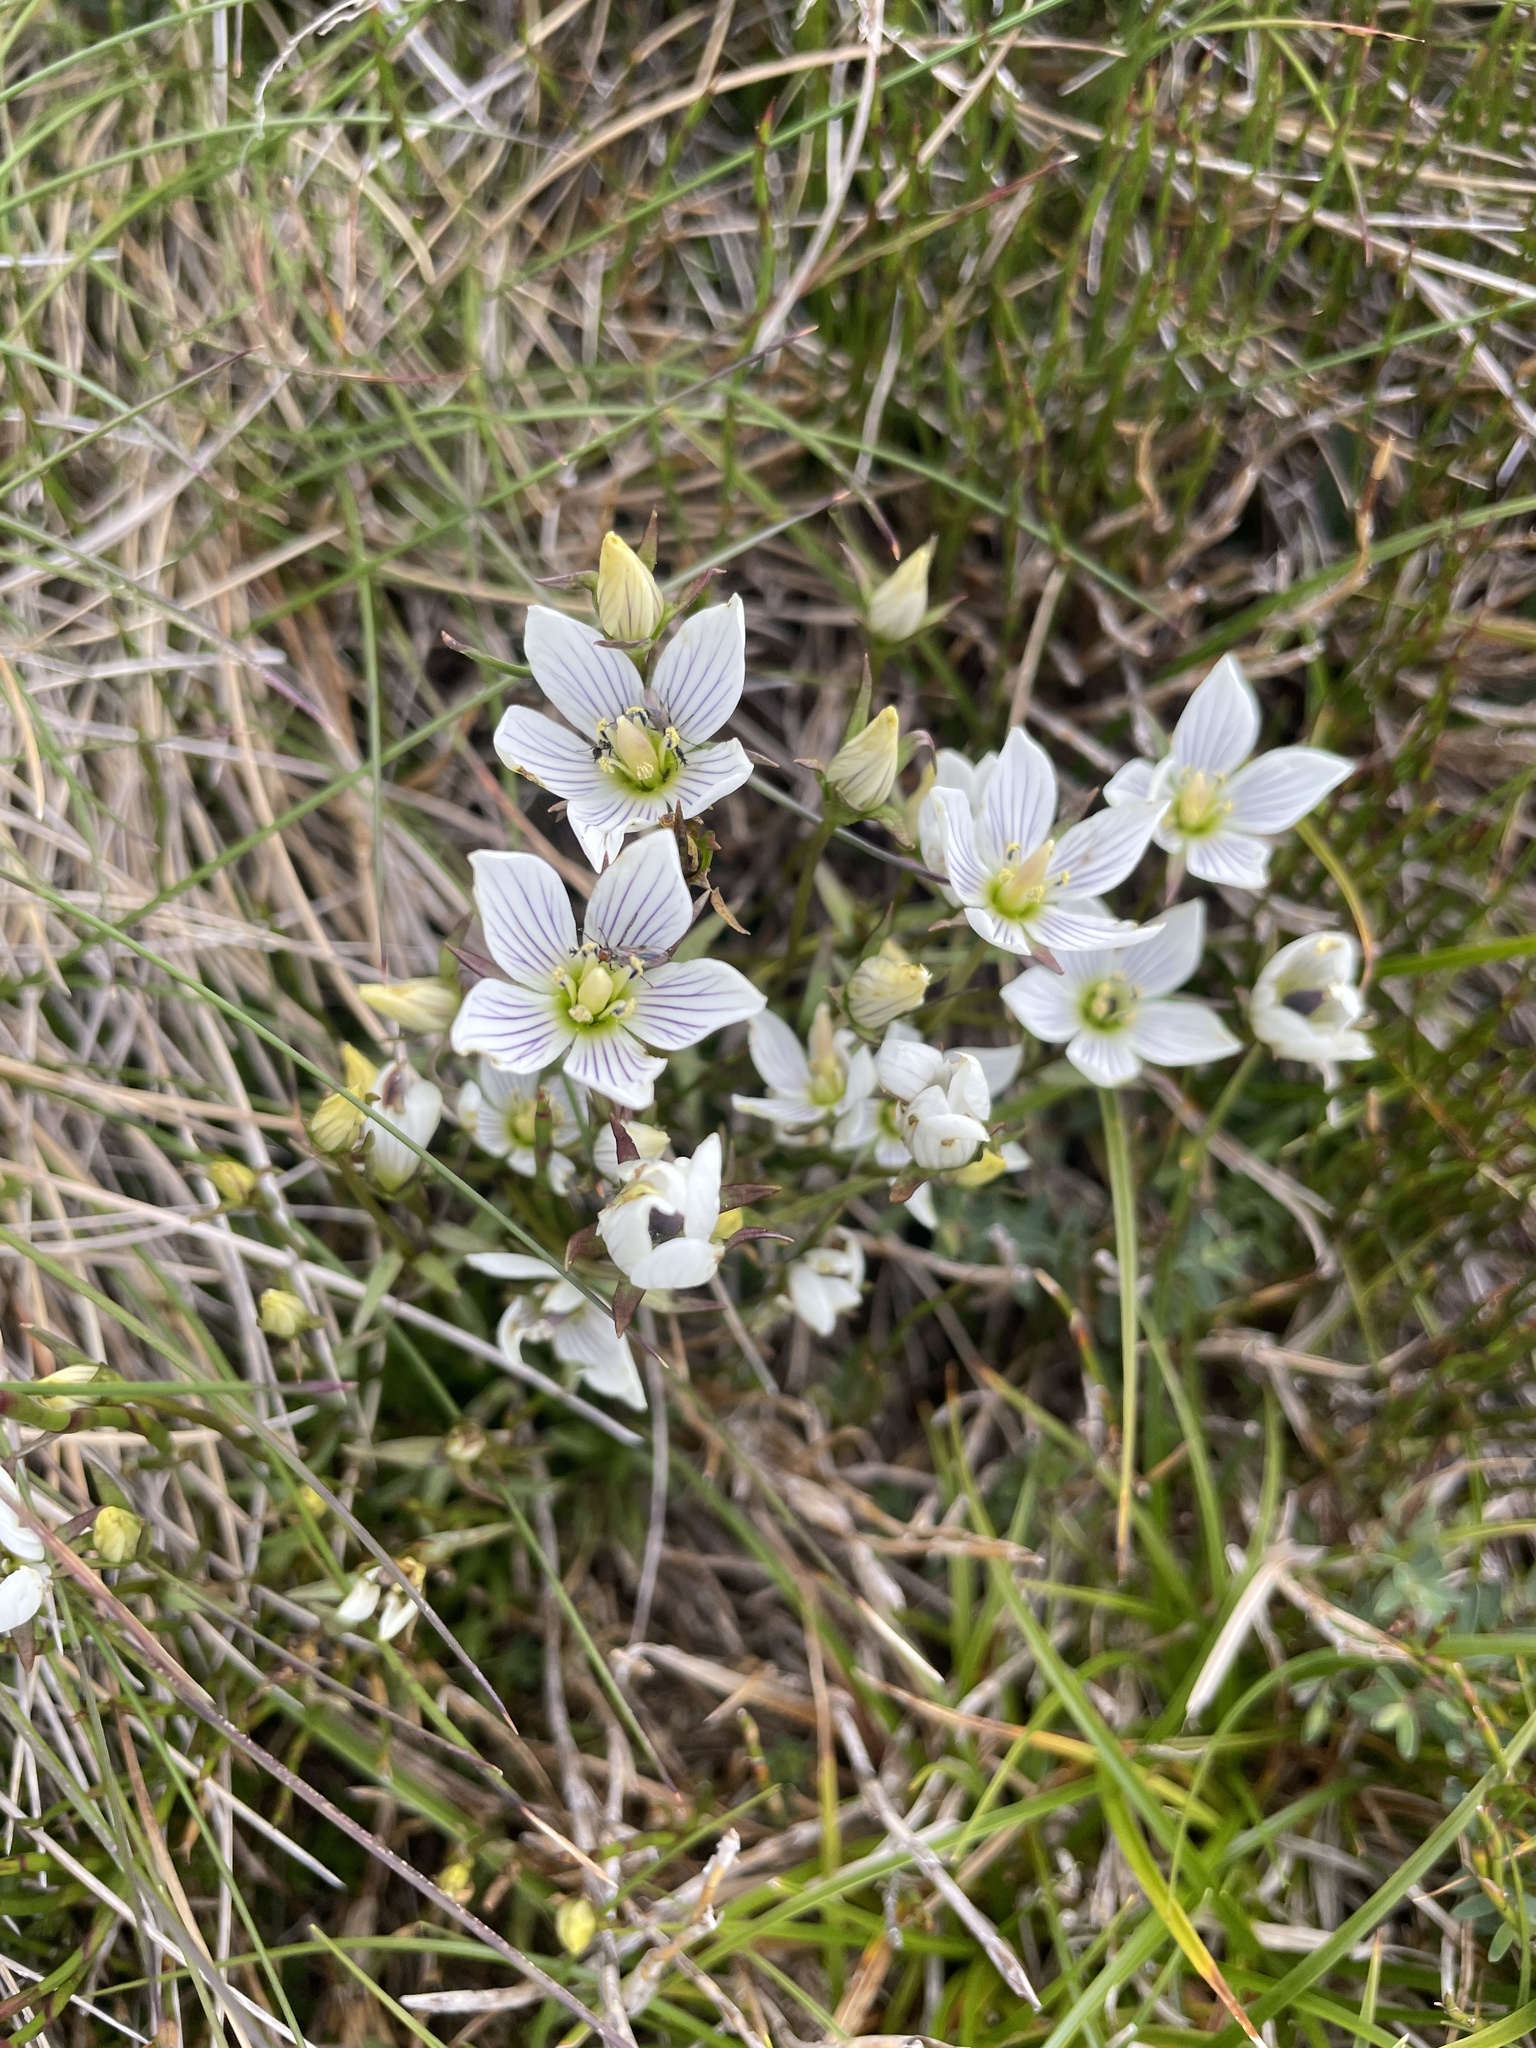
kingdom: Plantae
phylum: Tracheophyta
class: Magnoliopsida
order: Gentianales
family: Gentianaceae
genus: Gentianella
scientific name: Gentianella muelleriana
